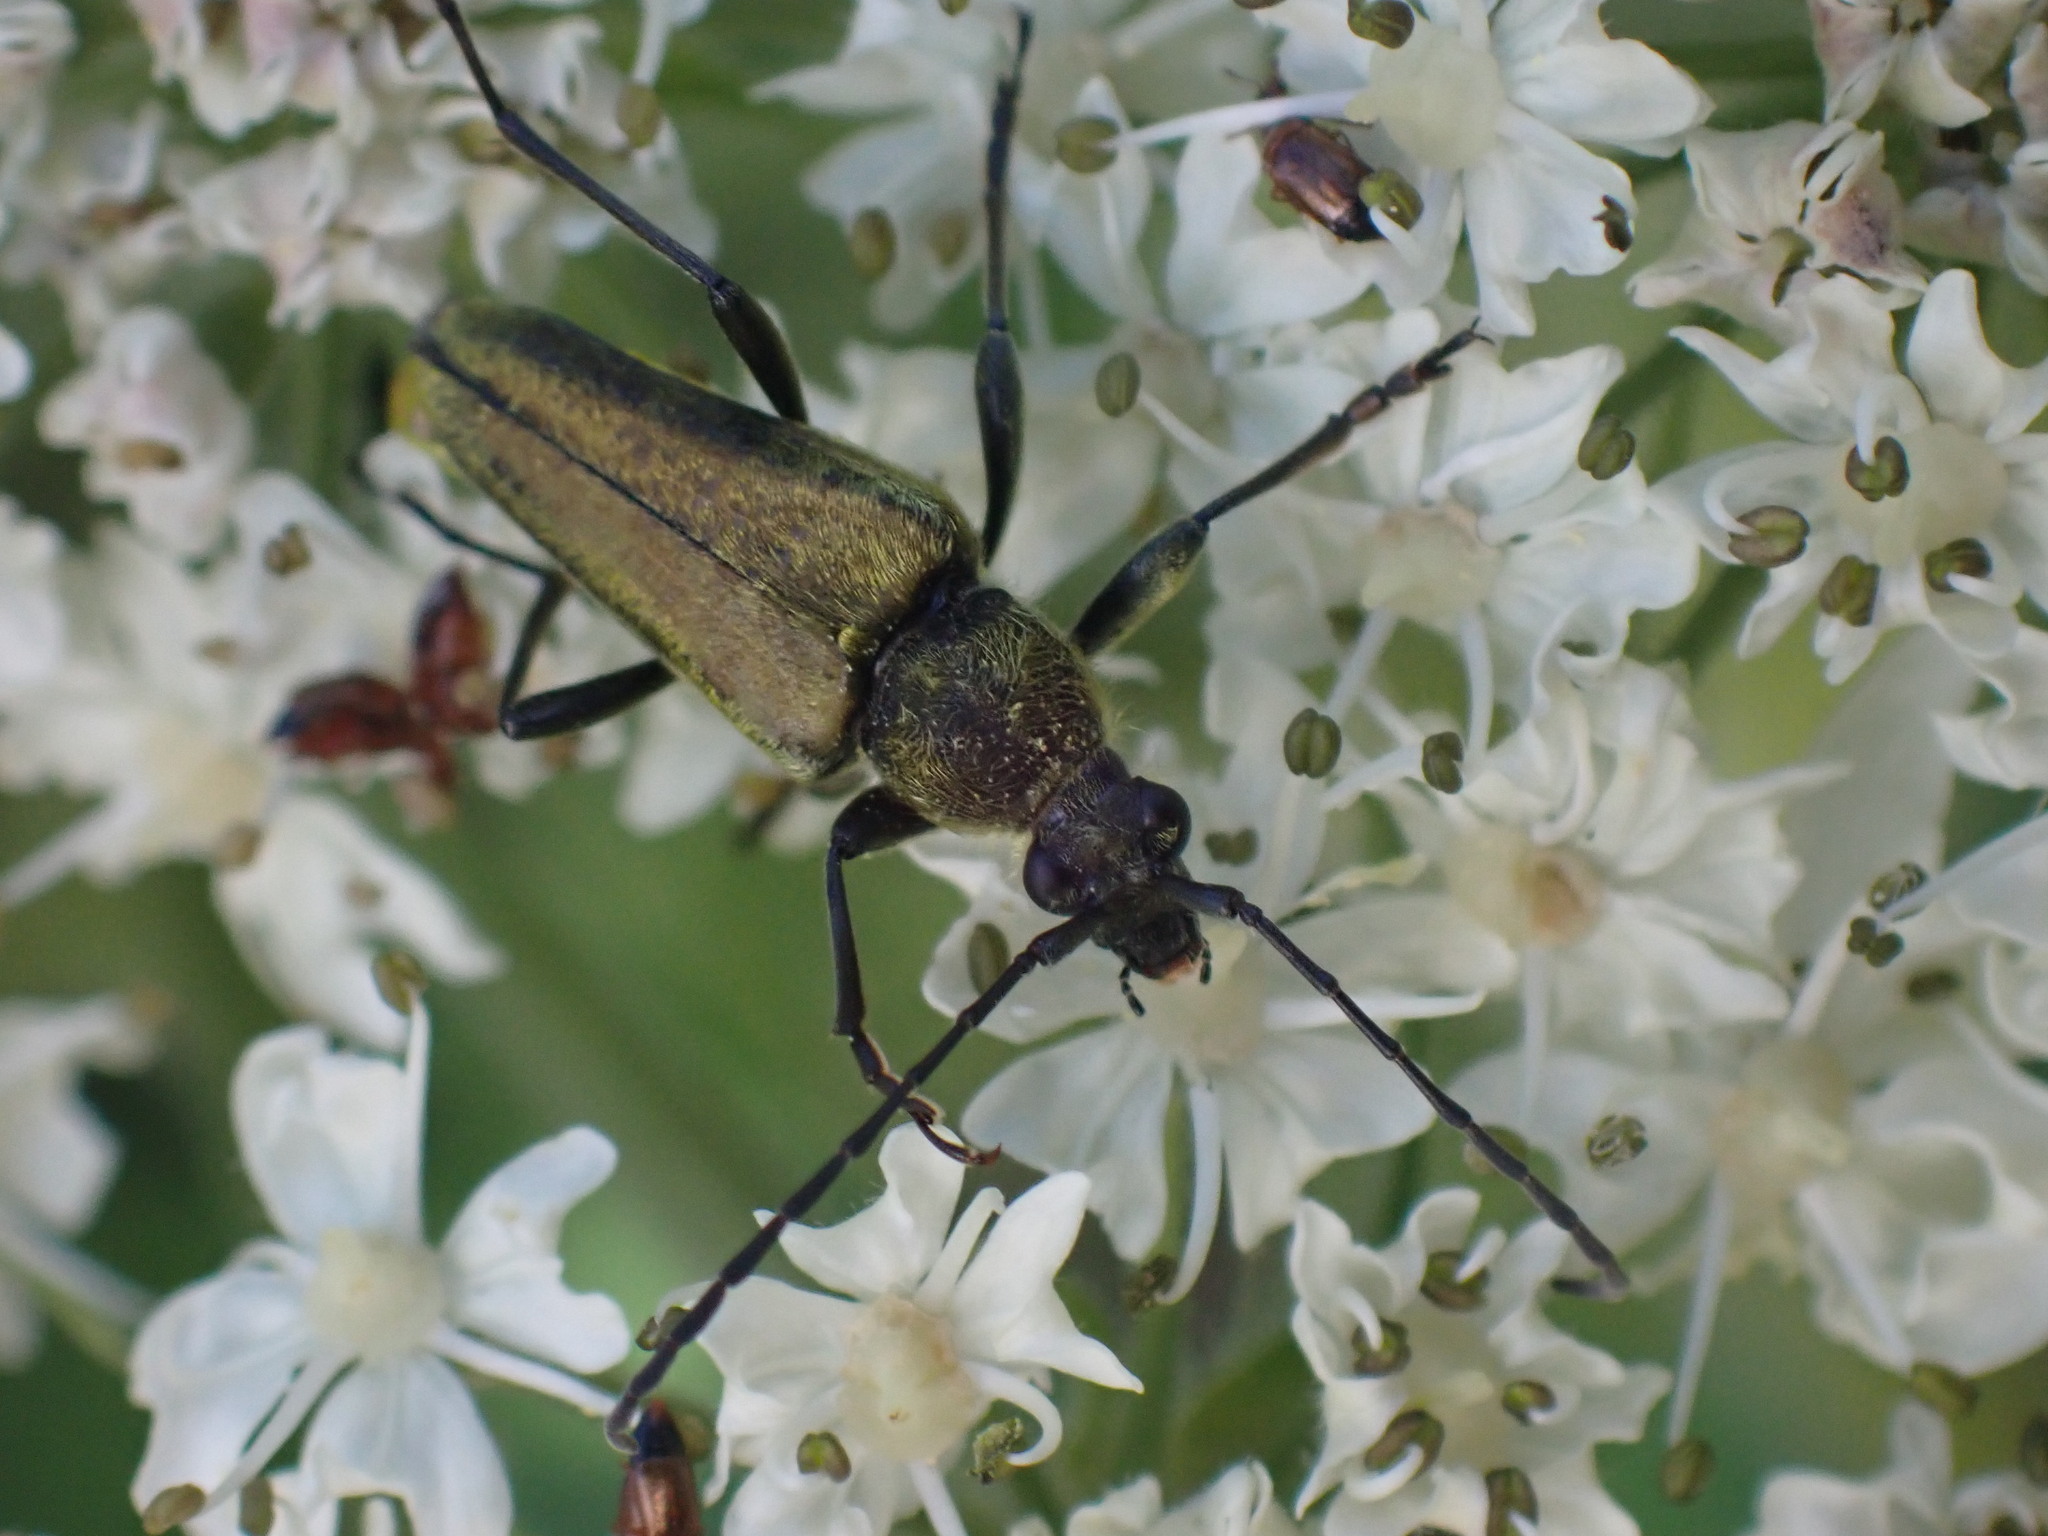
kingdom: Animalia
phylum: Arthropoda
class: Insecta
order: Coleoptera
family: Cerambycidae
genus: Cosmosalia
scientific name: Cosmosalia chrysocoma
